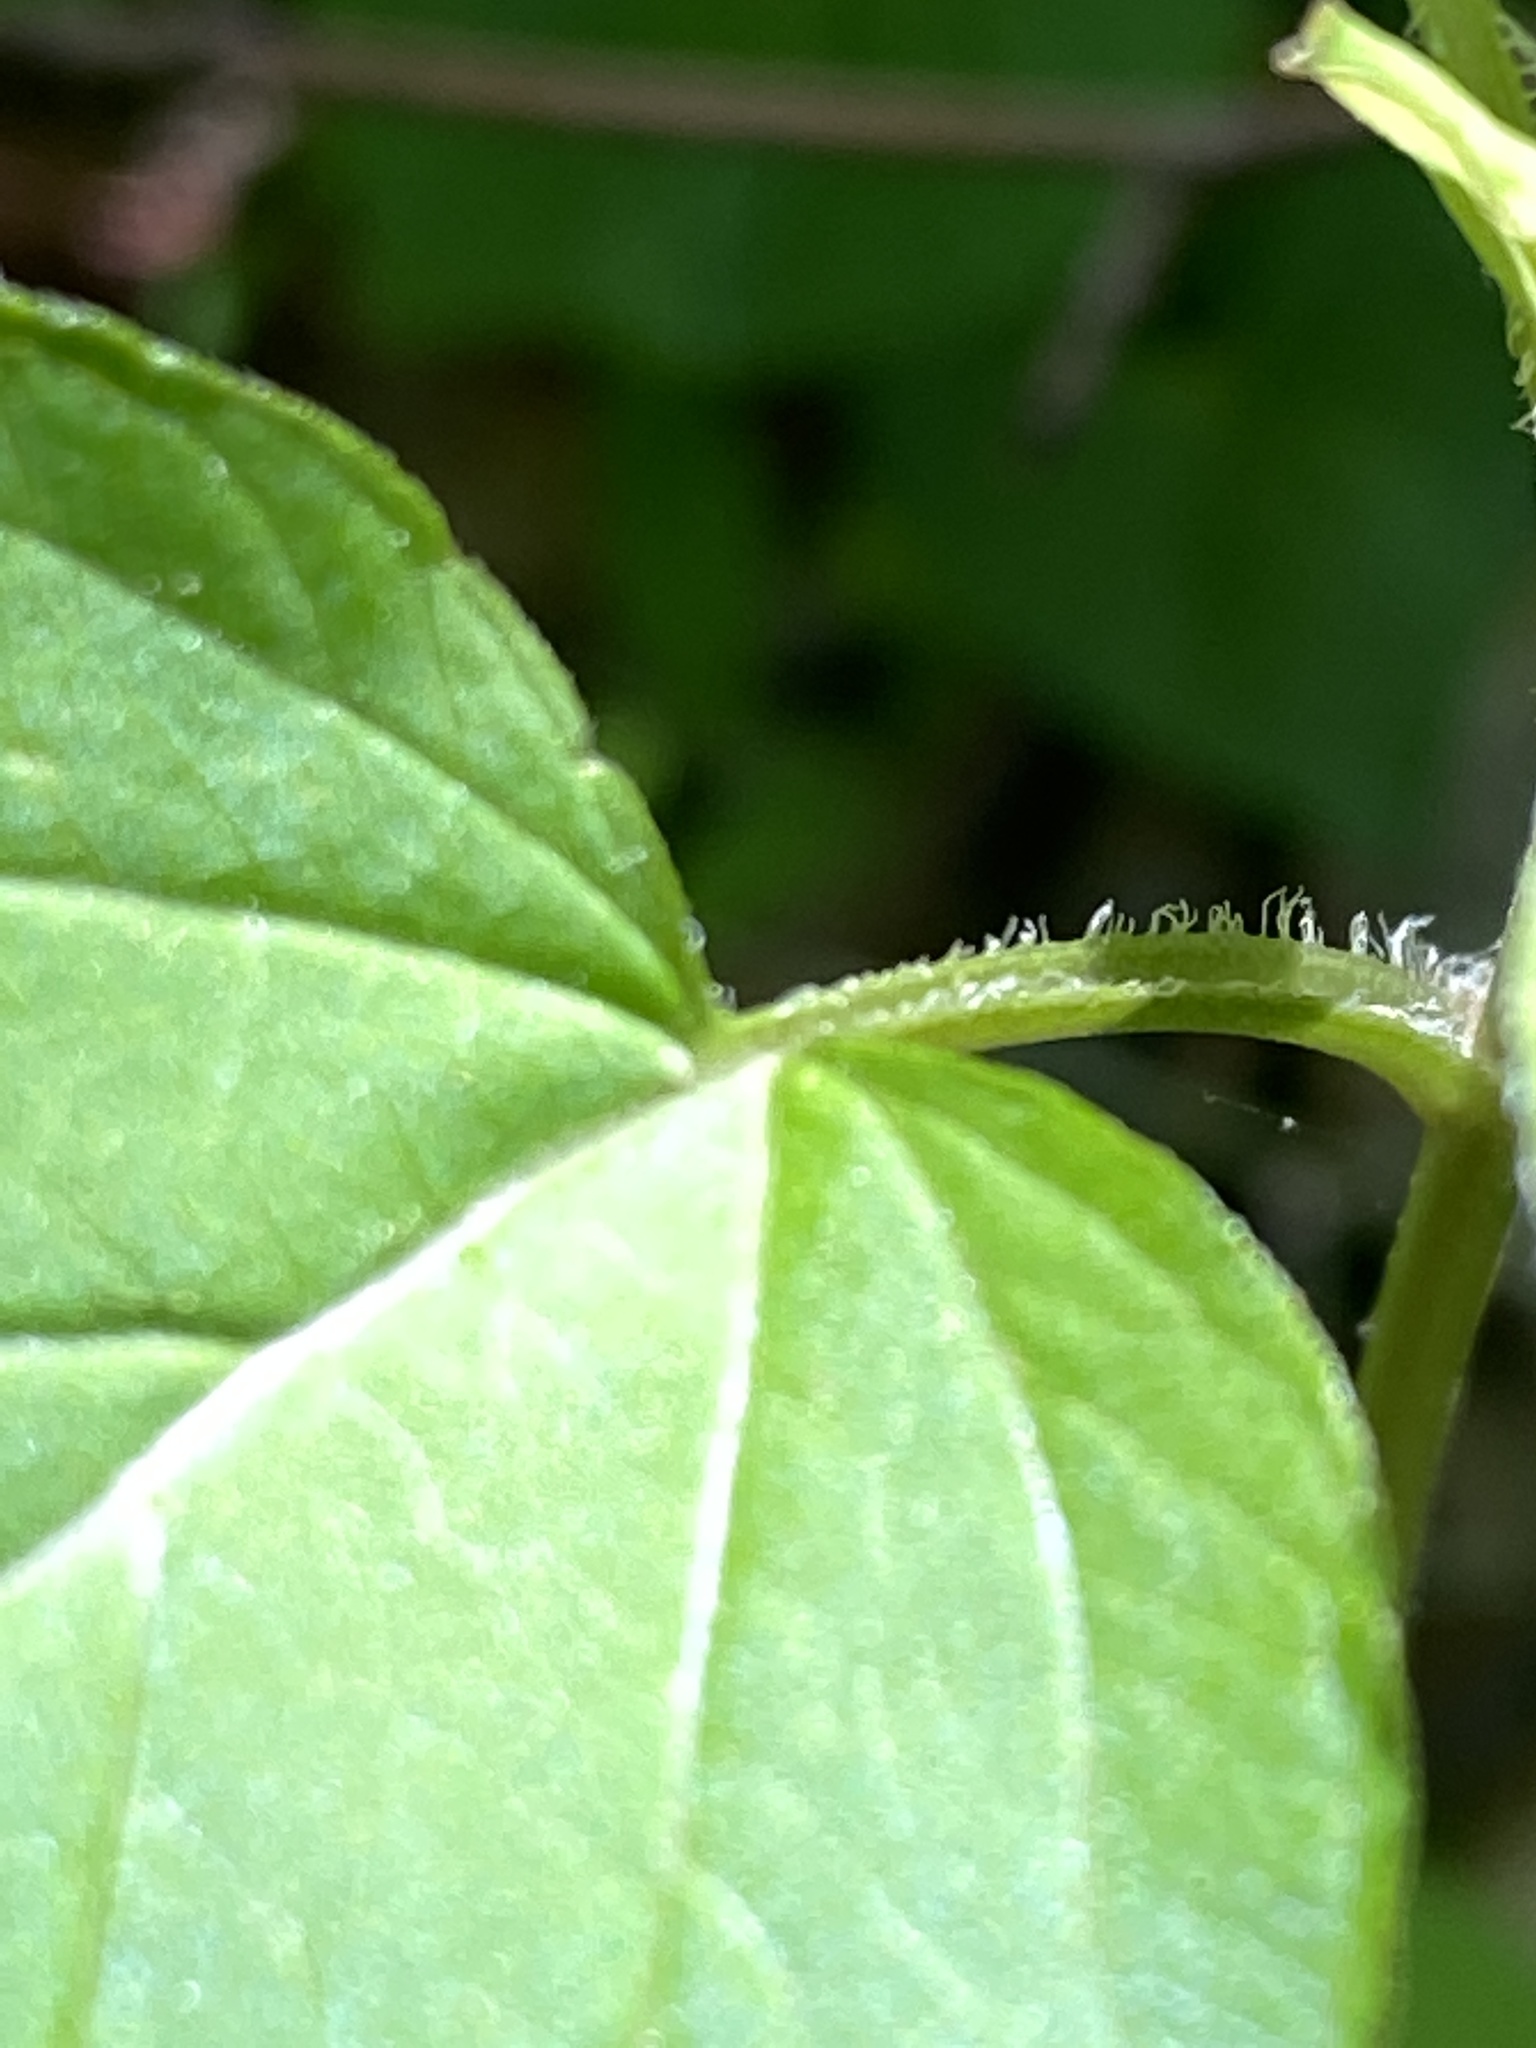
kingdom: Plantae
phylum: Tracheophyta
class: Magnoliopsida
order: Ericales
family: Primulaceae
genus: Lysimachia
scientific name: Lysimachia ciliata
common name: Fringed loosestrife
